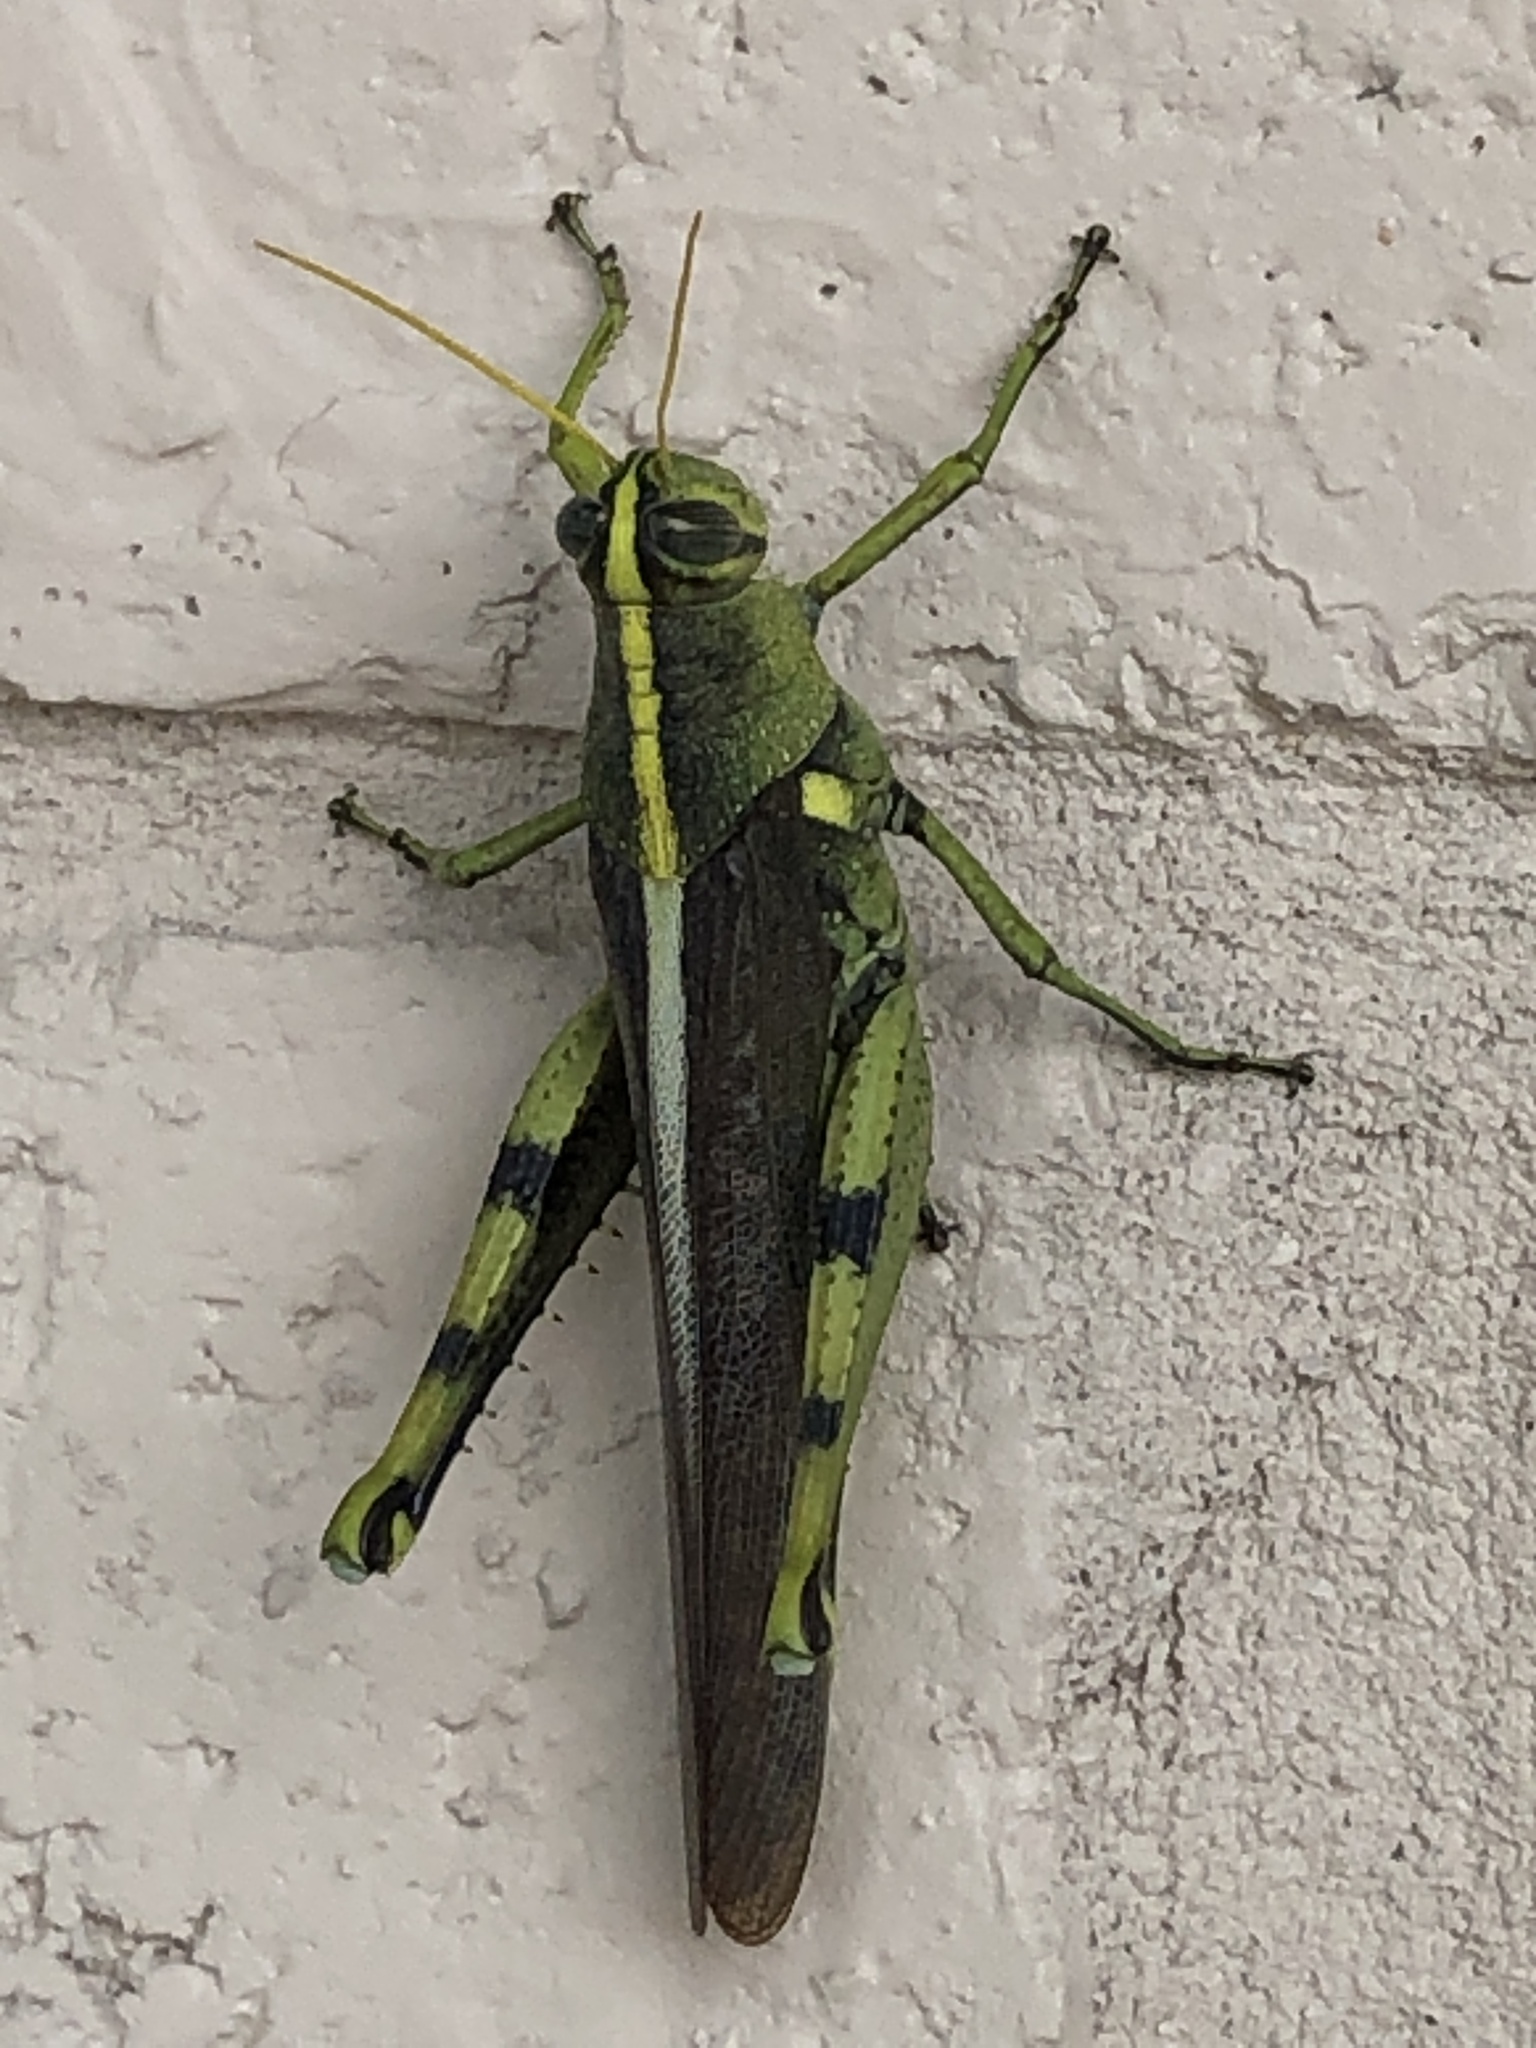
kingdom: Animalia
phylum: Arthropoda
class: Insecta
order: Orthoptera
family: Acrididae
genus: Schistocerca
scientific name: Schistocerca obscura
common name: Obscure bird grasshopper
